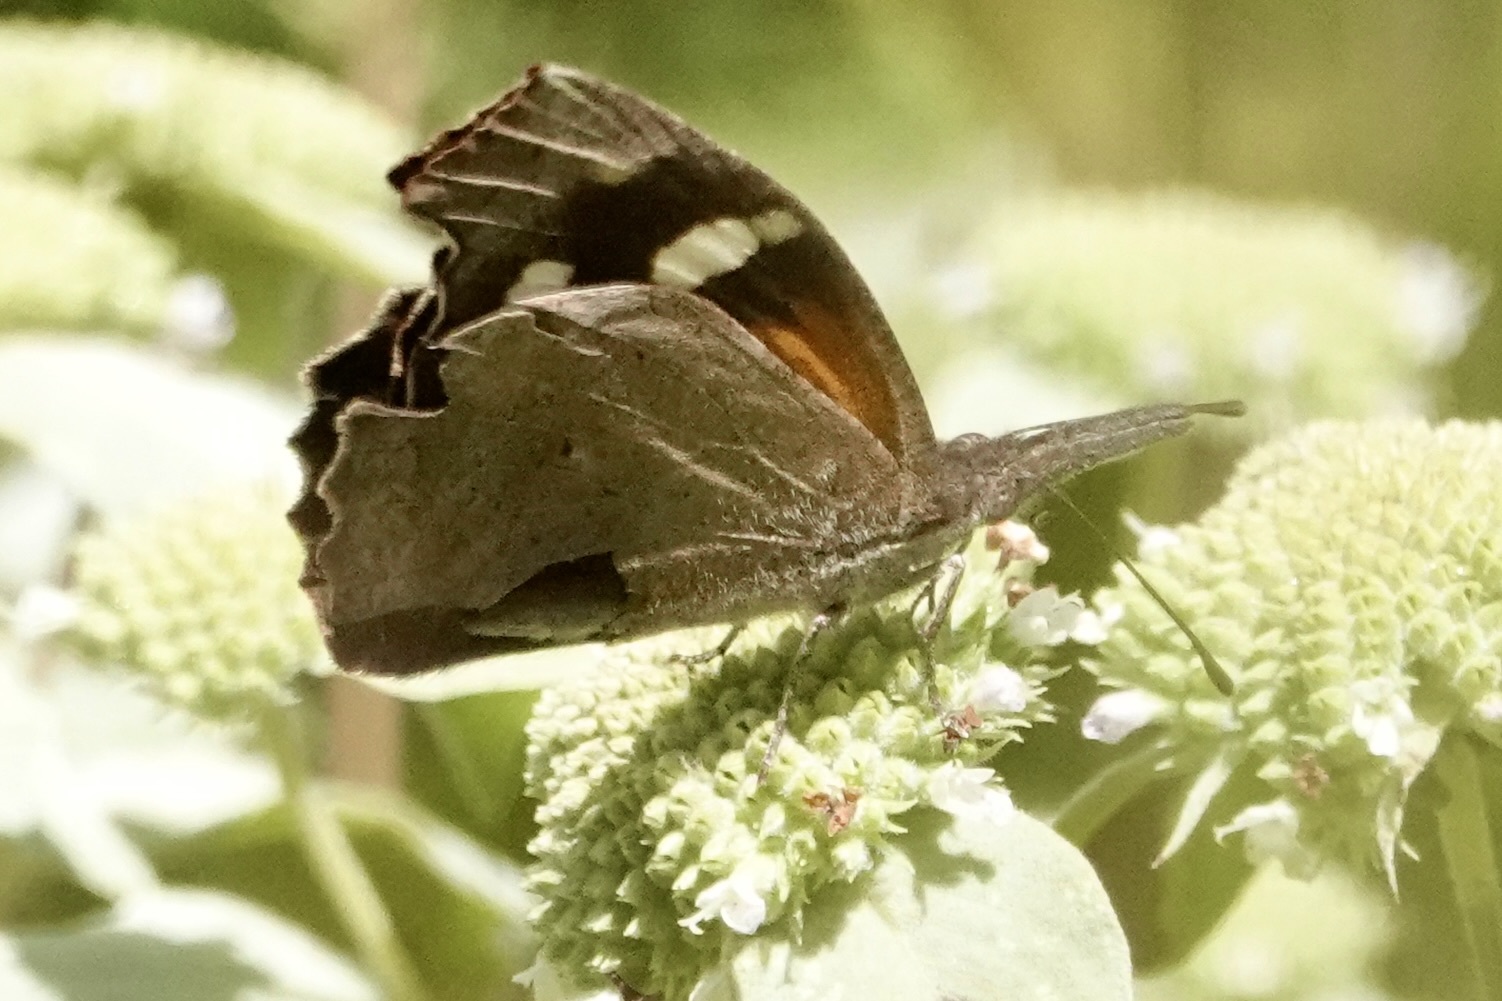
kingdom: Animalia
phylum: Arthropoda
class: Insecta
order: Lepidoptera
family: Nymphalidae
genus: Libytheana
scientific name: Libytheana carinenta
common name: American snout
